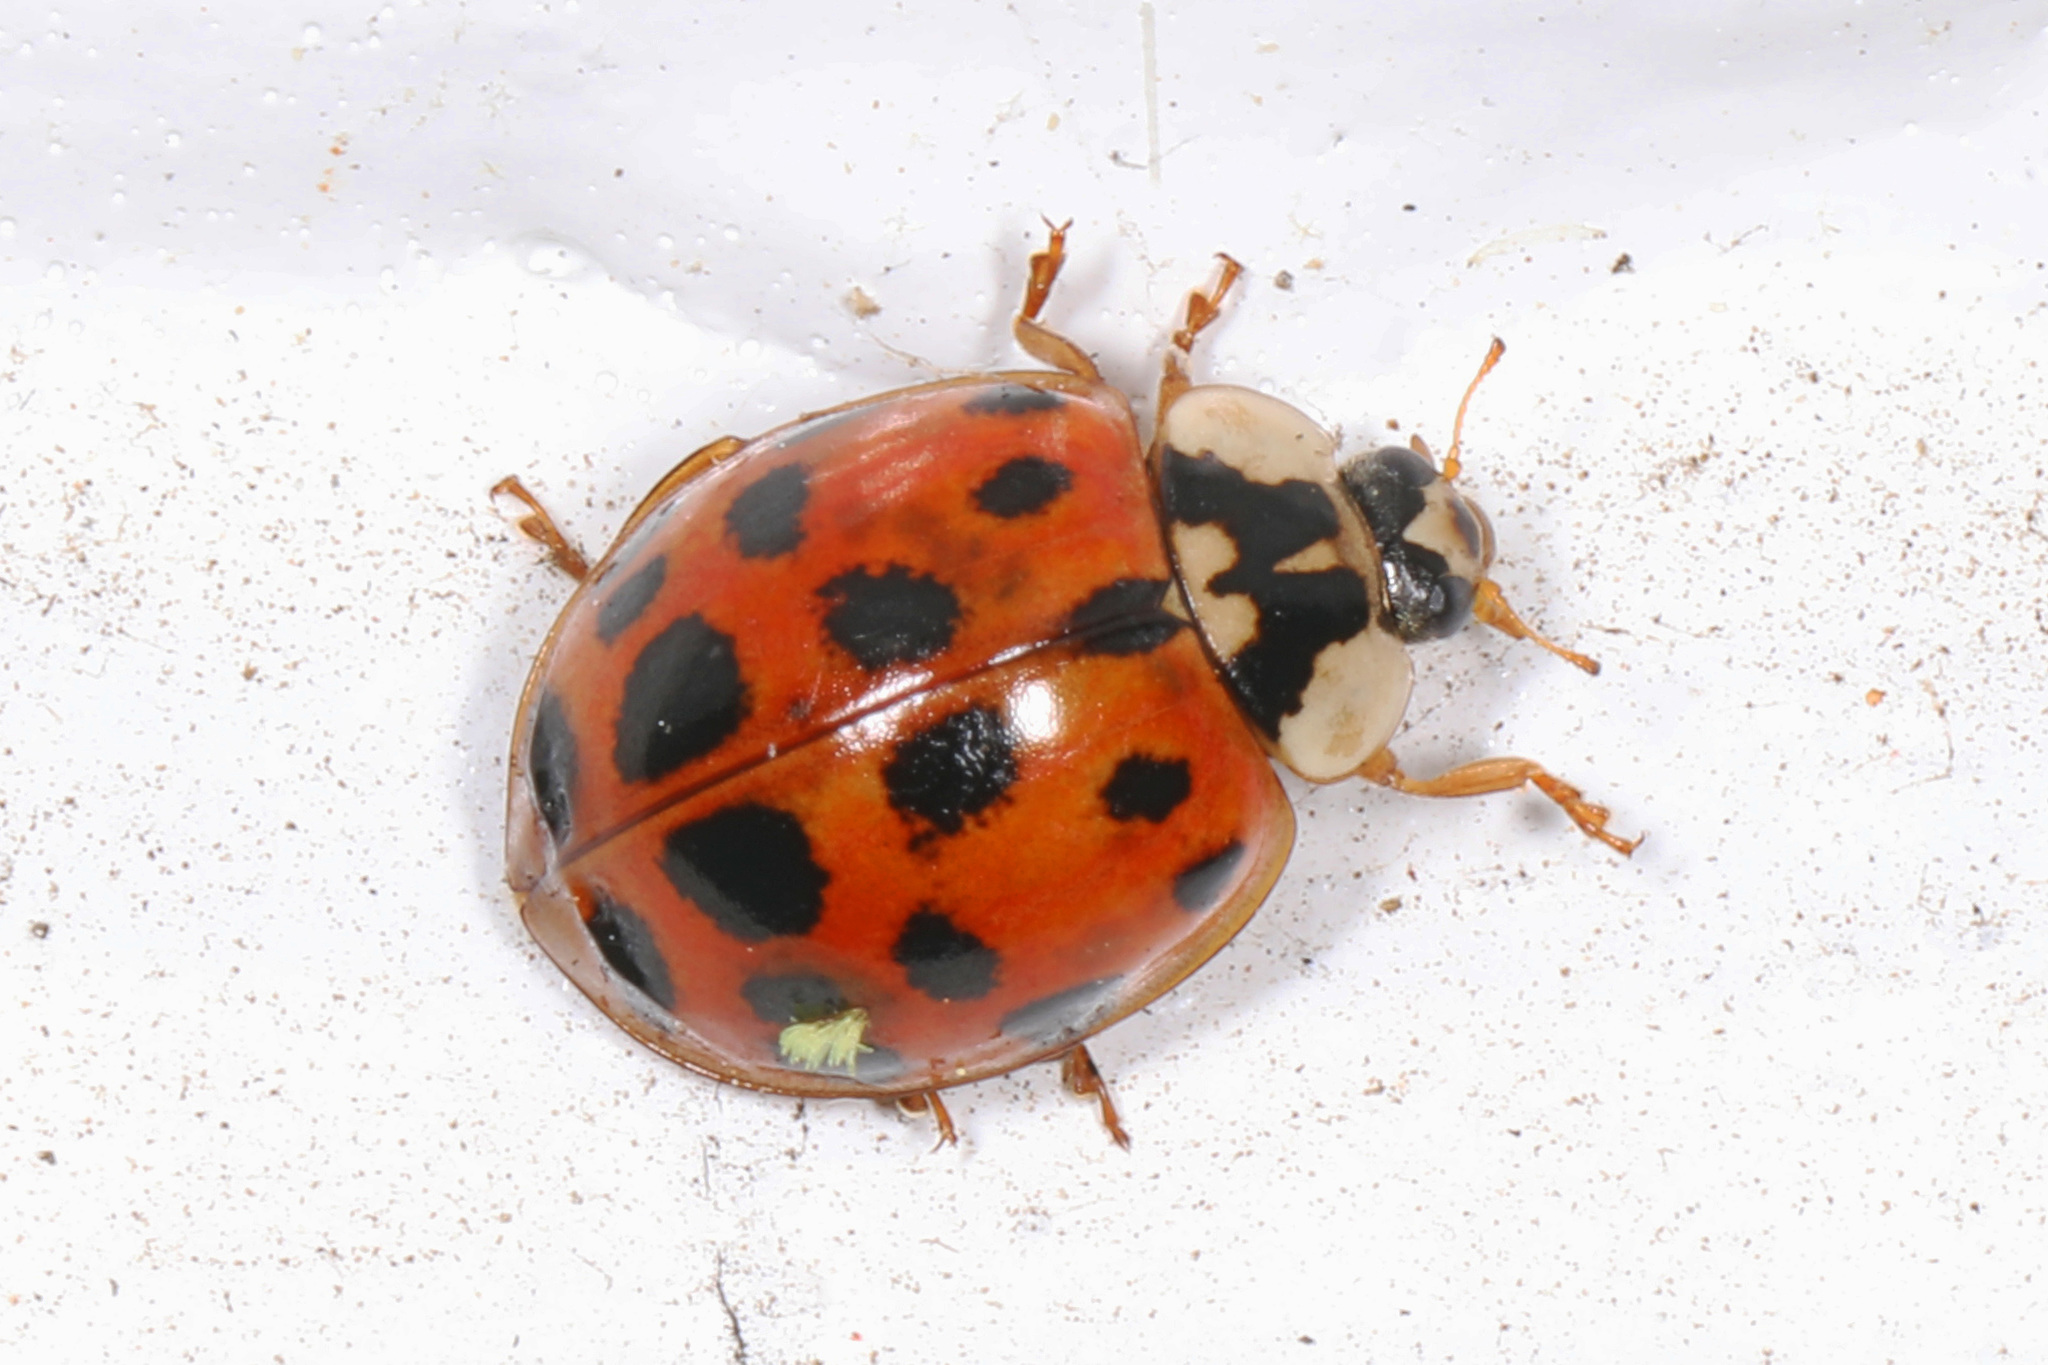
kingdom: Animalia
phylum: Arthropoda
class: Insecta
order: Coleoptera
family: Coccinellidae
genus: Harmonia
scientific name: Harmonia axyridis
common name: Harlequin ladybird
